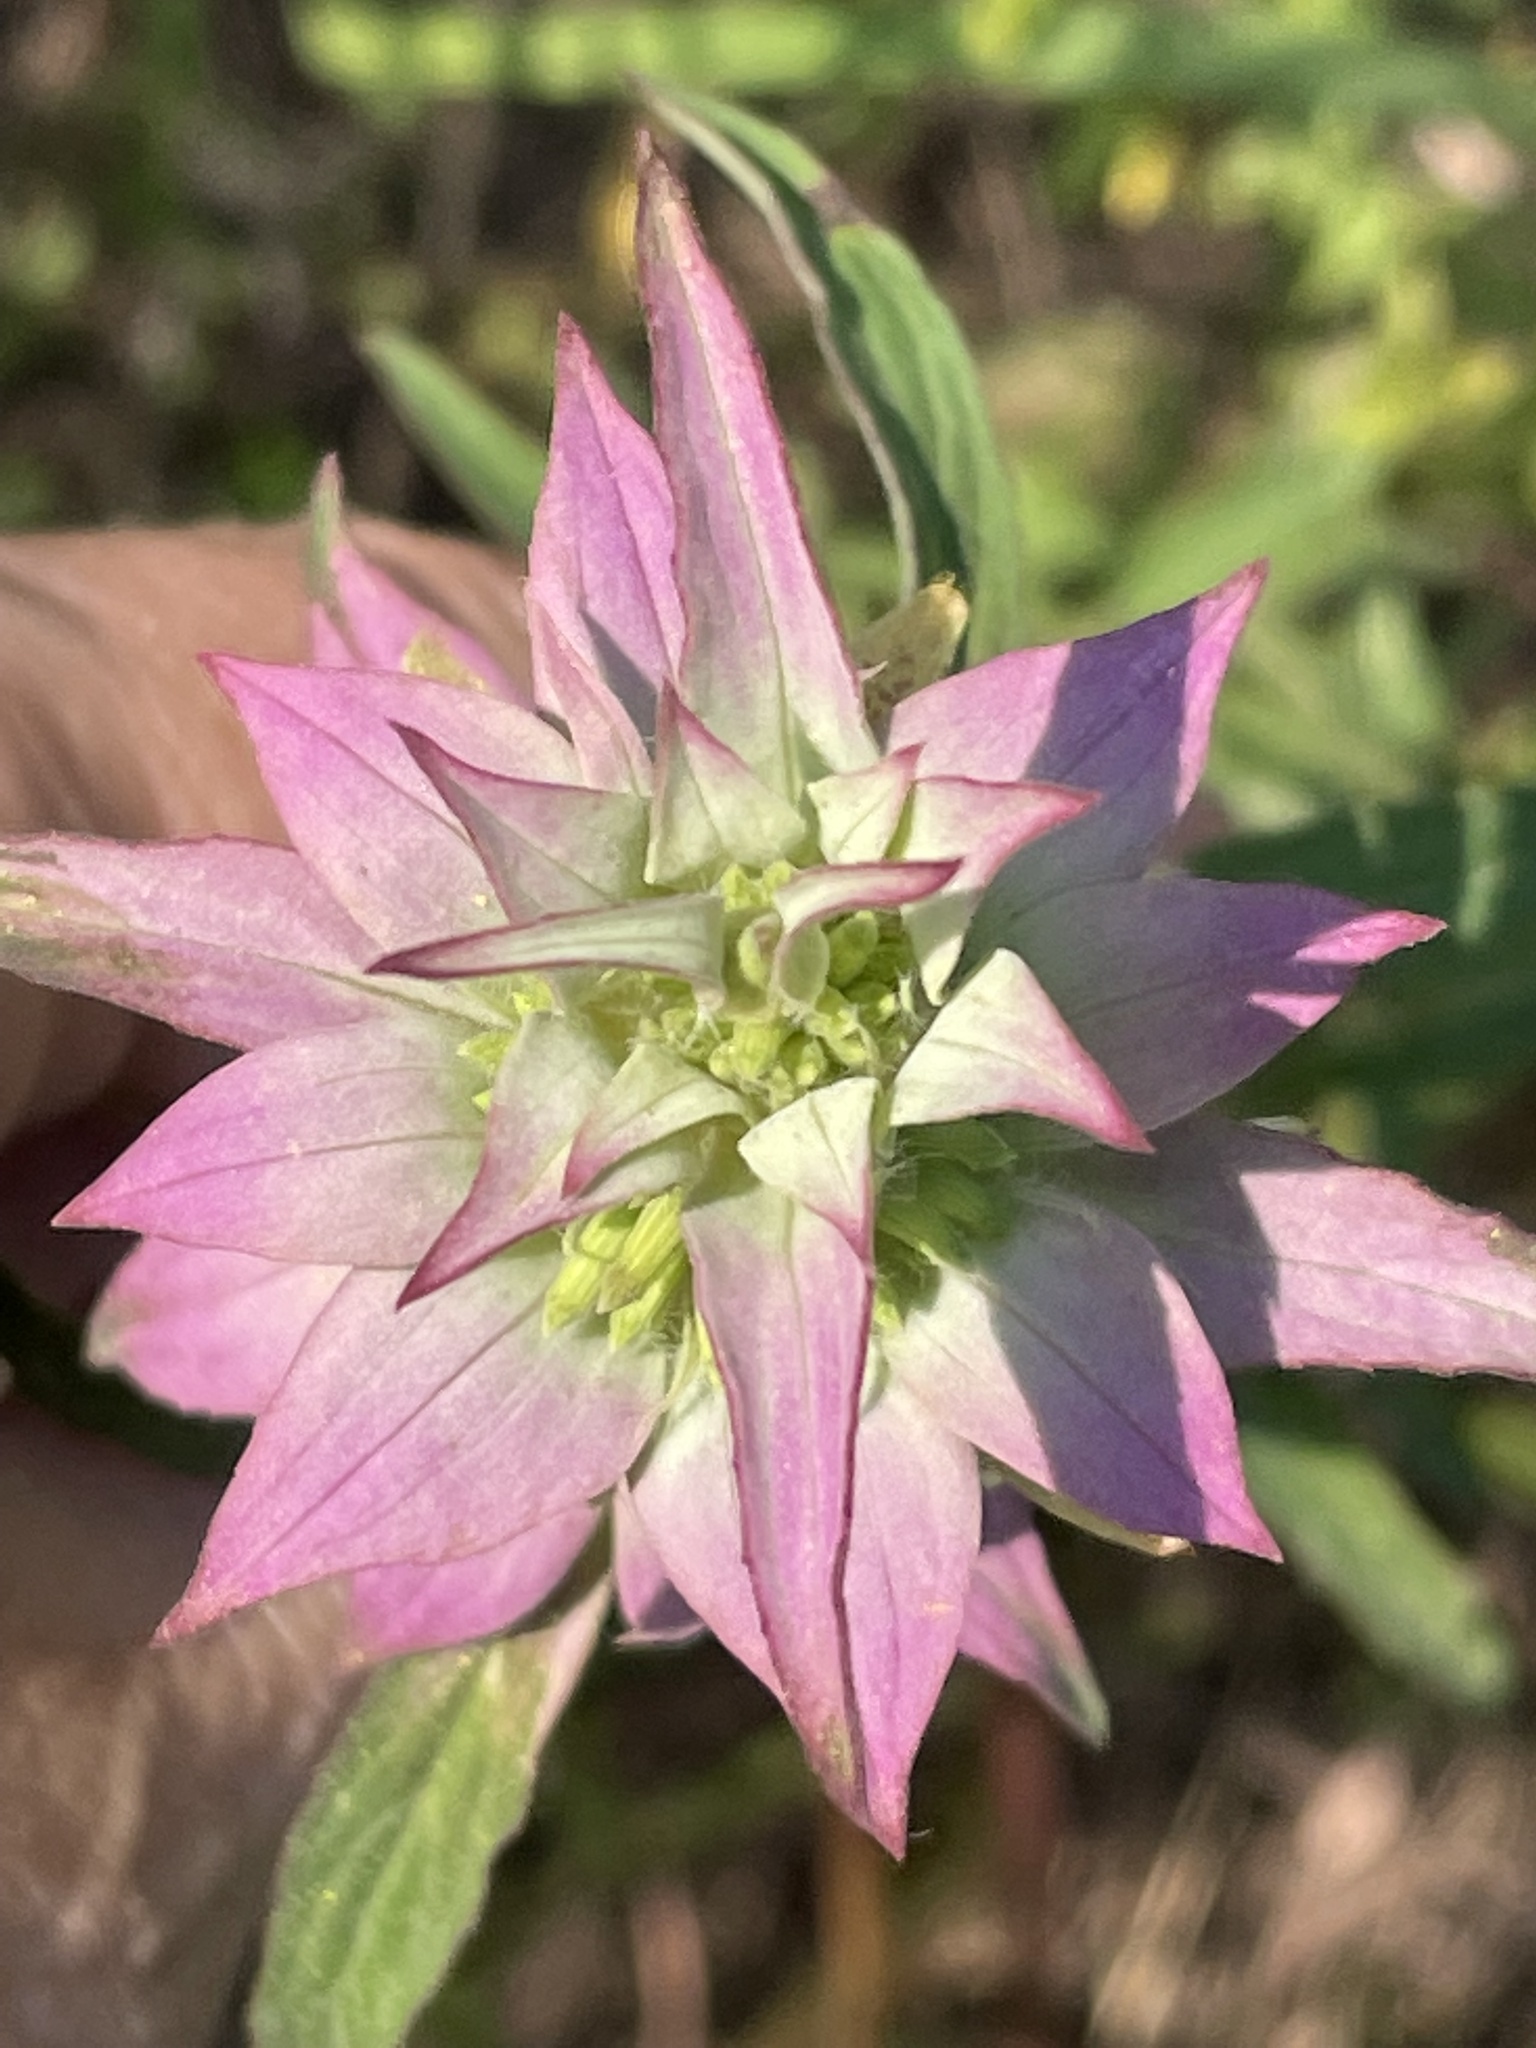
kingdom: Plantae
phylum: Tracheophyta
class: Magnoliopsida
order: Lamiales
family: Lamiaceae
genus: Monarda
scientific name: Monarda punctata
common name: Dotted monarda
